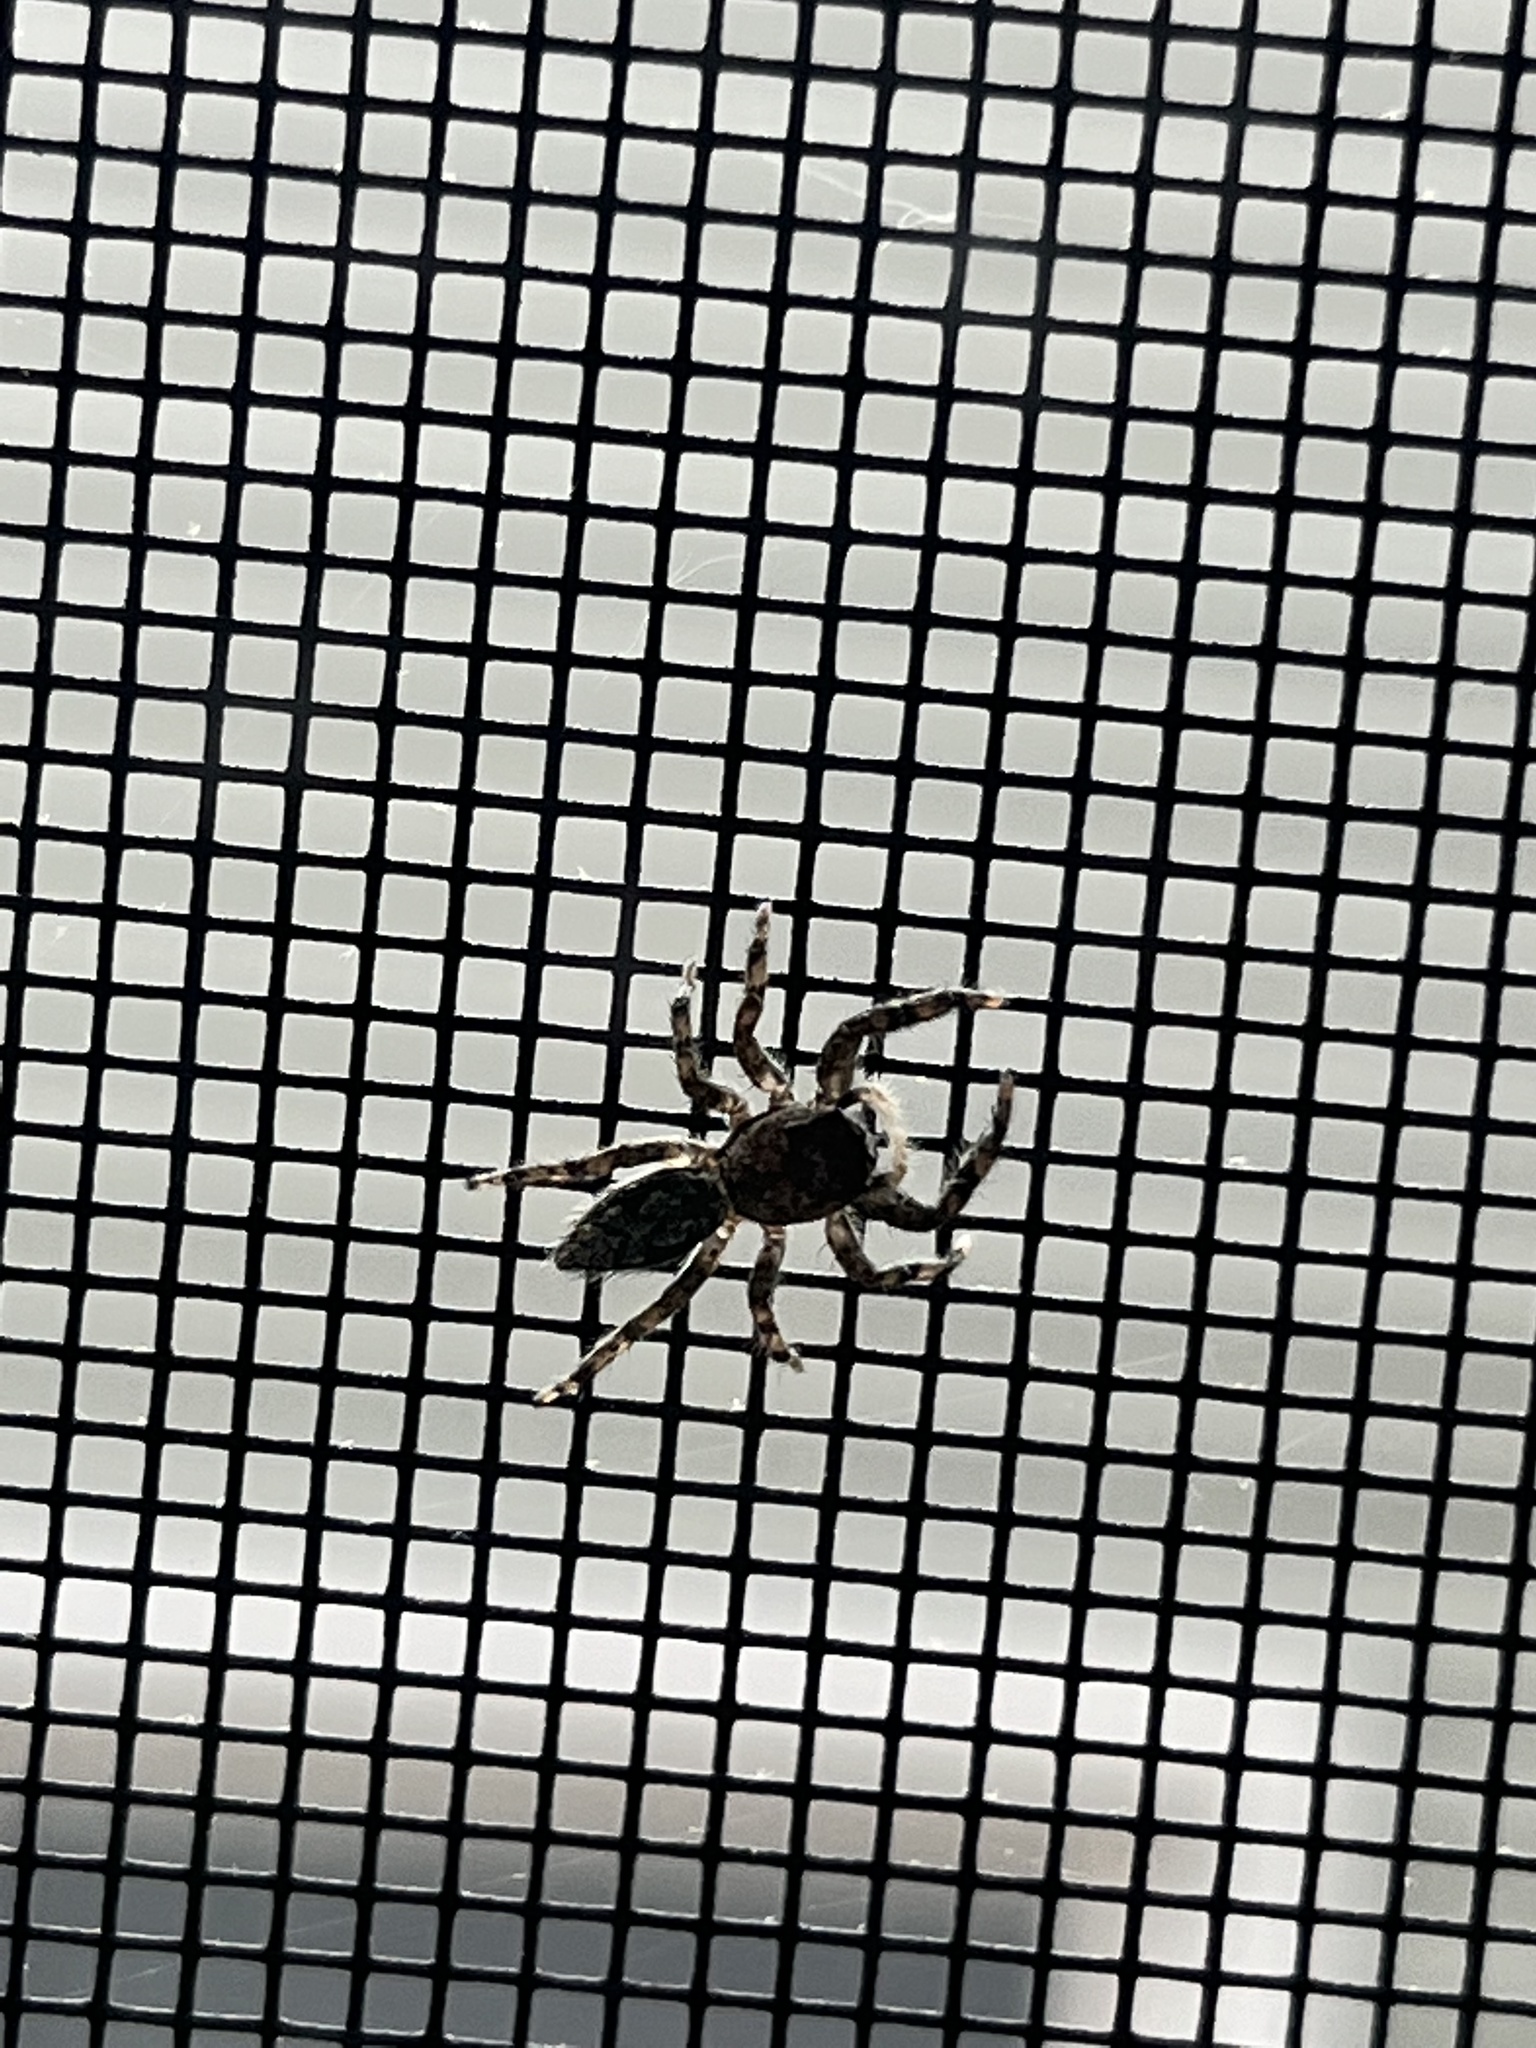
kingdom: Animalia
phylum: Arthropoda
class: Arachnida
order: Araneae
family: Salticidae
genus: Platycryptus
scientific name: Platycryptus undatus
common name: Tan jumping spider
